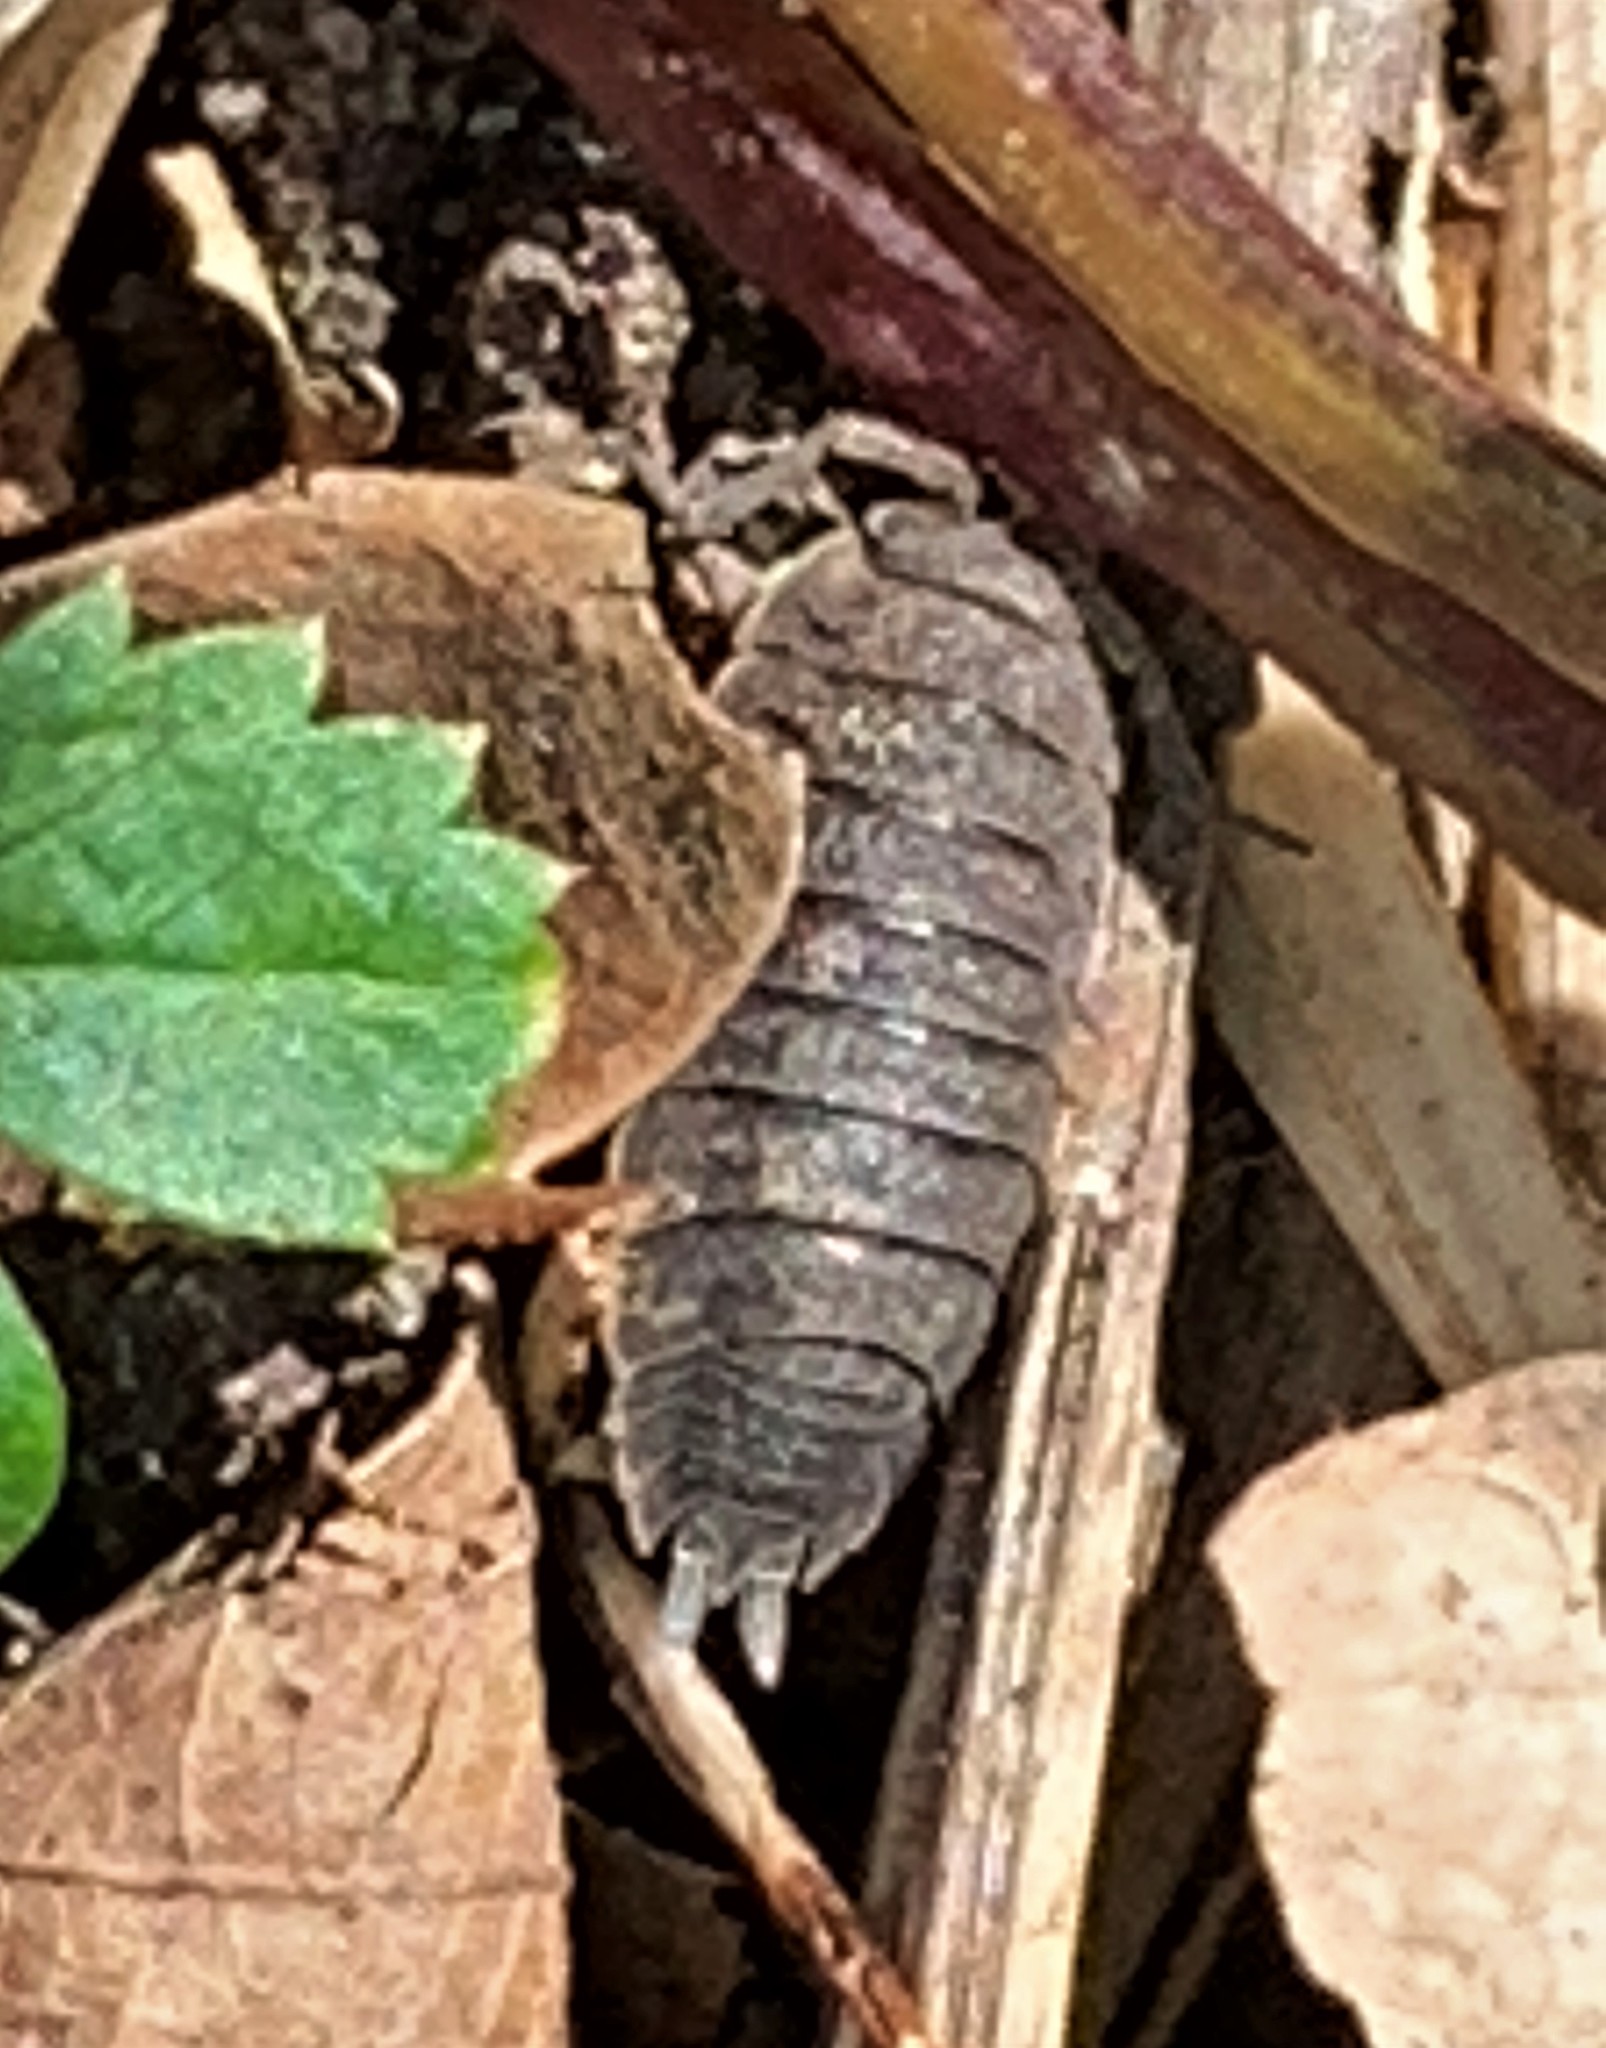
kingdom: Animalia
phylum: Arthropoda
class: Malacostraca
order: Isopoda
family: Porcellionidae
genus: Porcellio
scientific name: Porcellio scaber
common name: Common rough woodlouse
